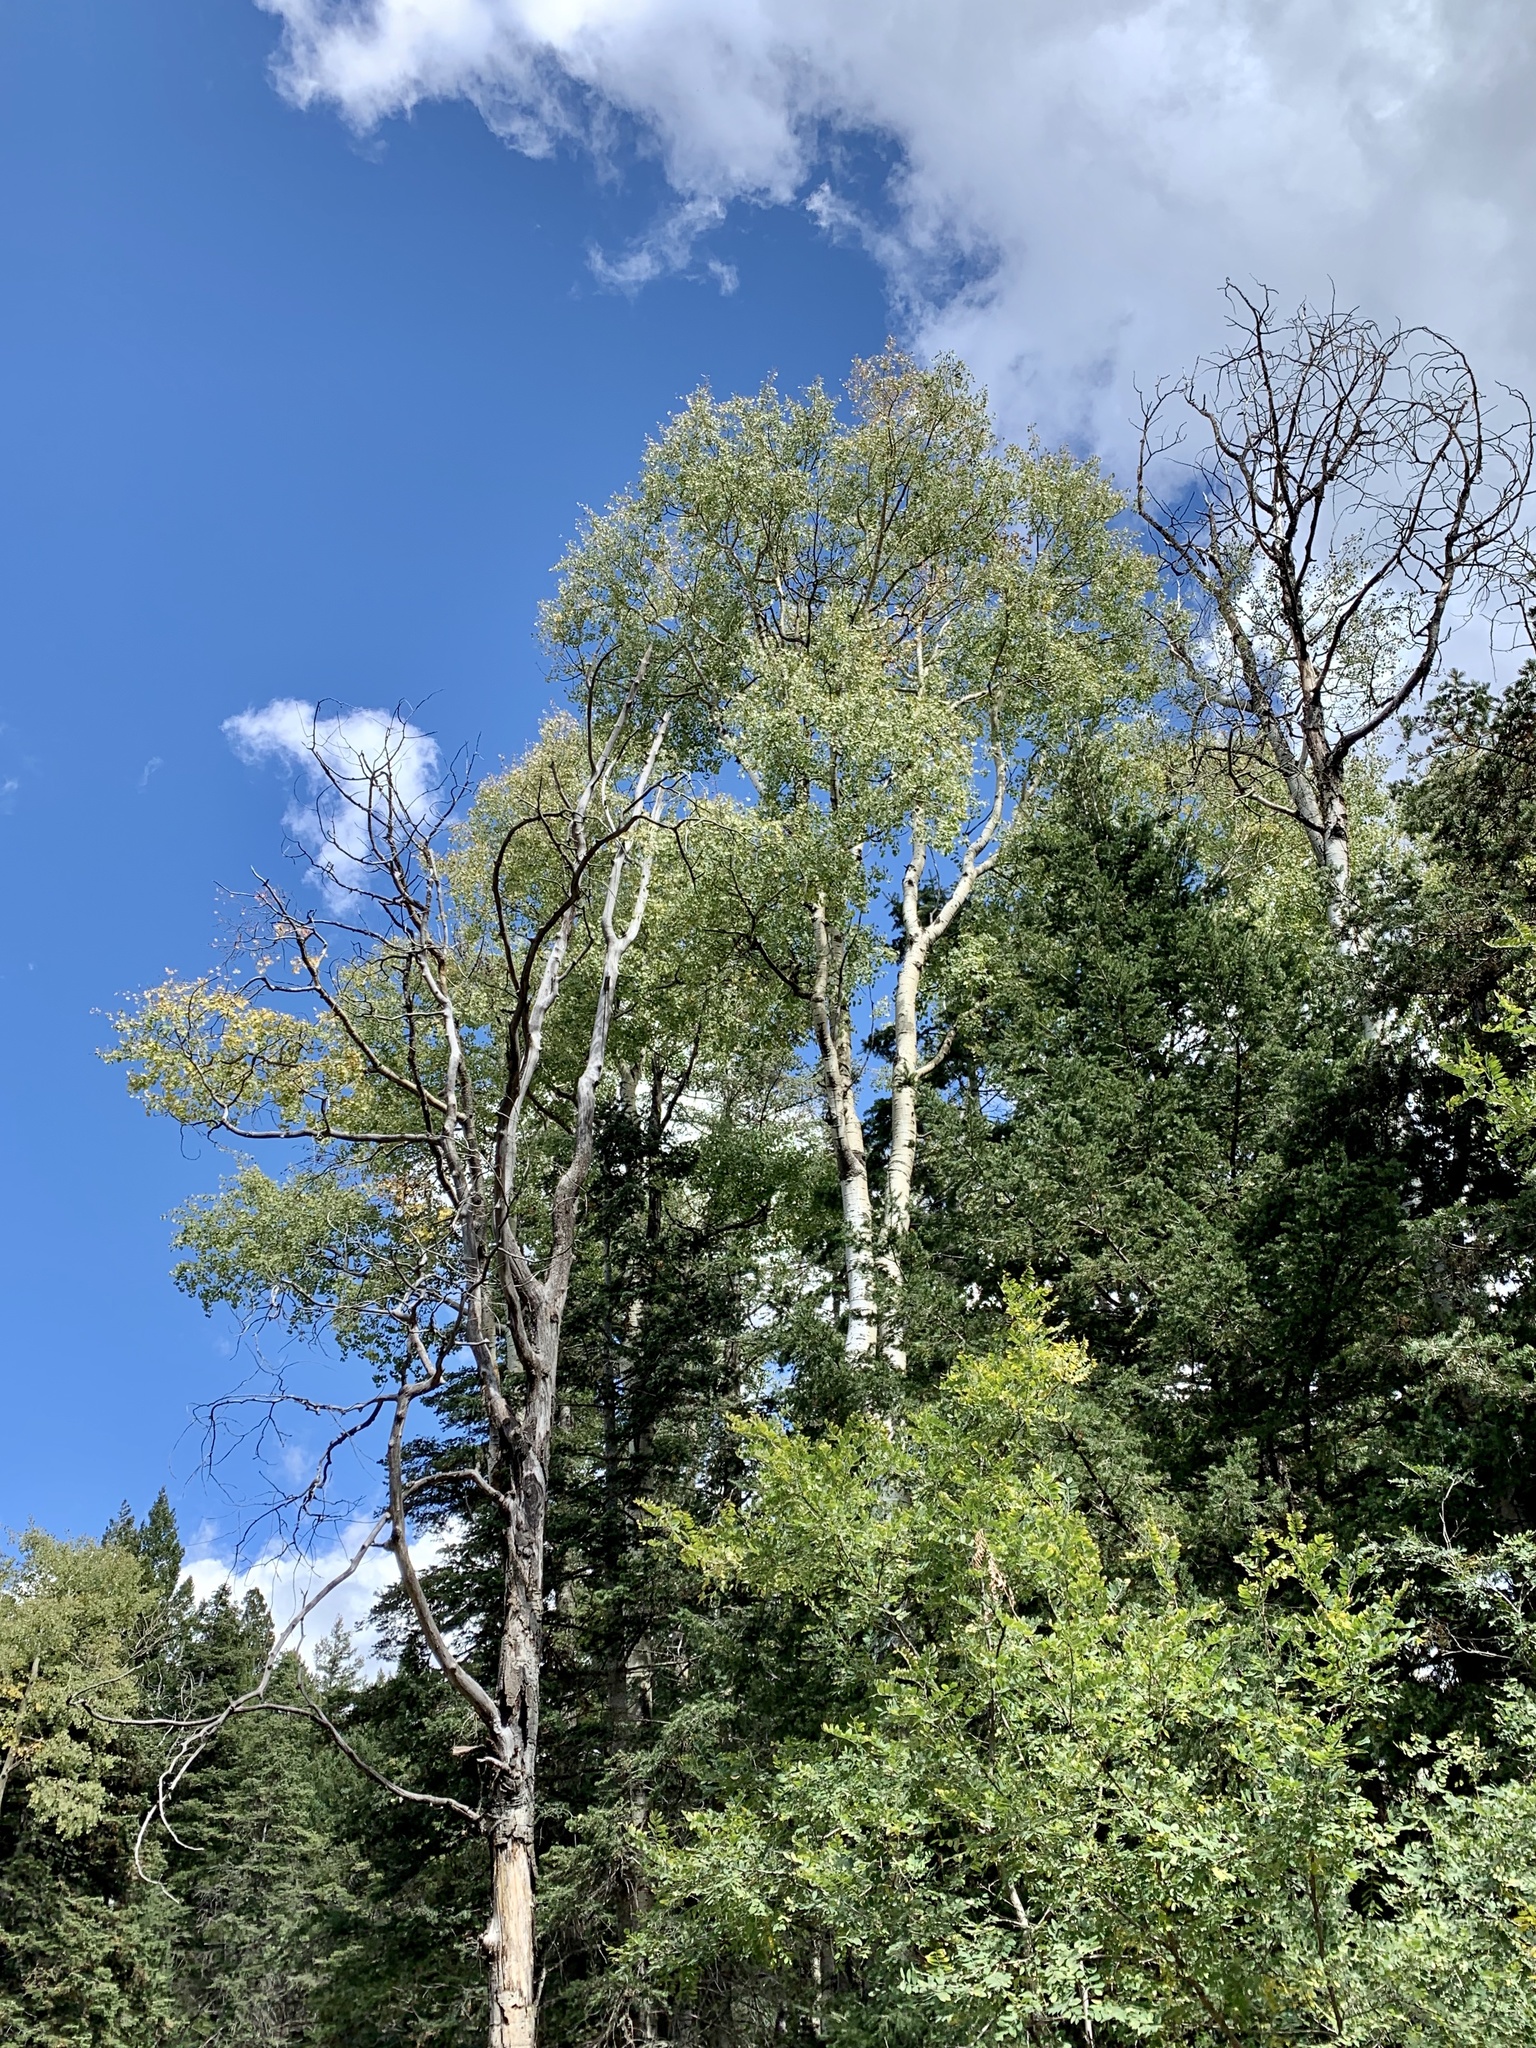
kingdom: Plantae
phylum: Tracheophyta
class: Magnoliopsida
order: Malpighiales
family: Salicaceae
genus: Populus
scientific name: Populus tremuloides
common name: Quaking aspen
